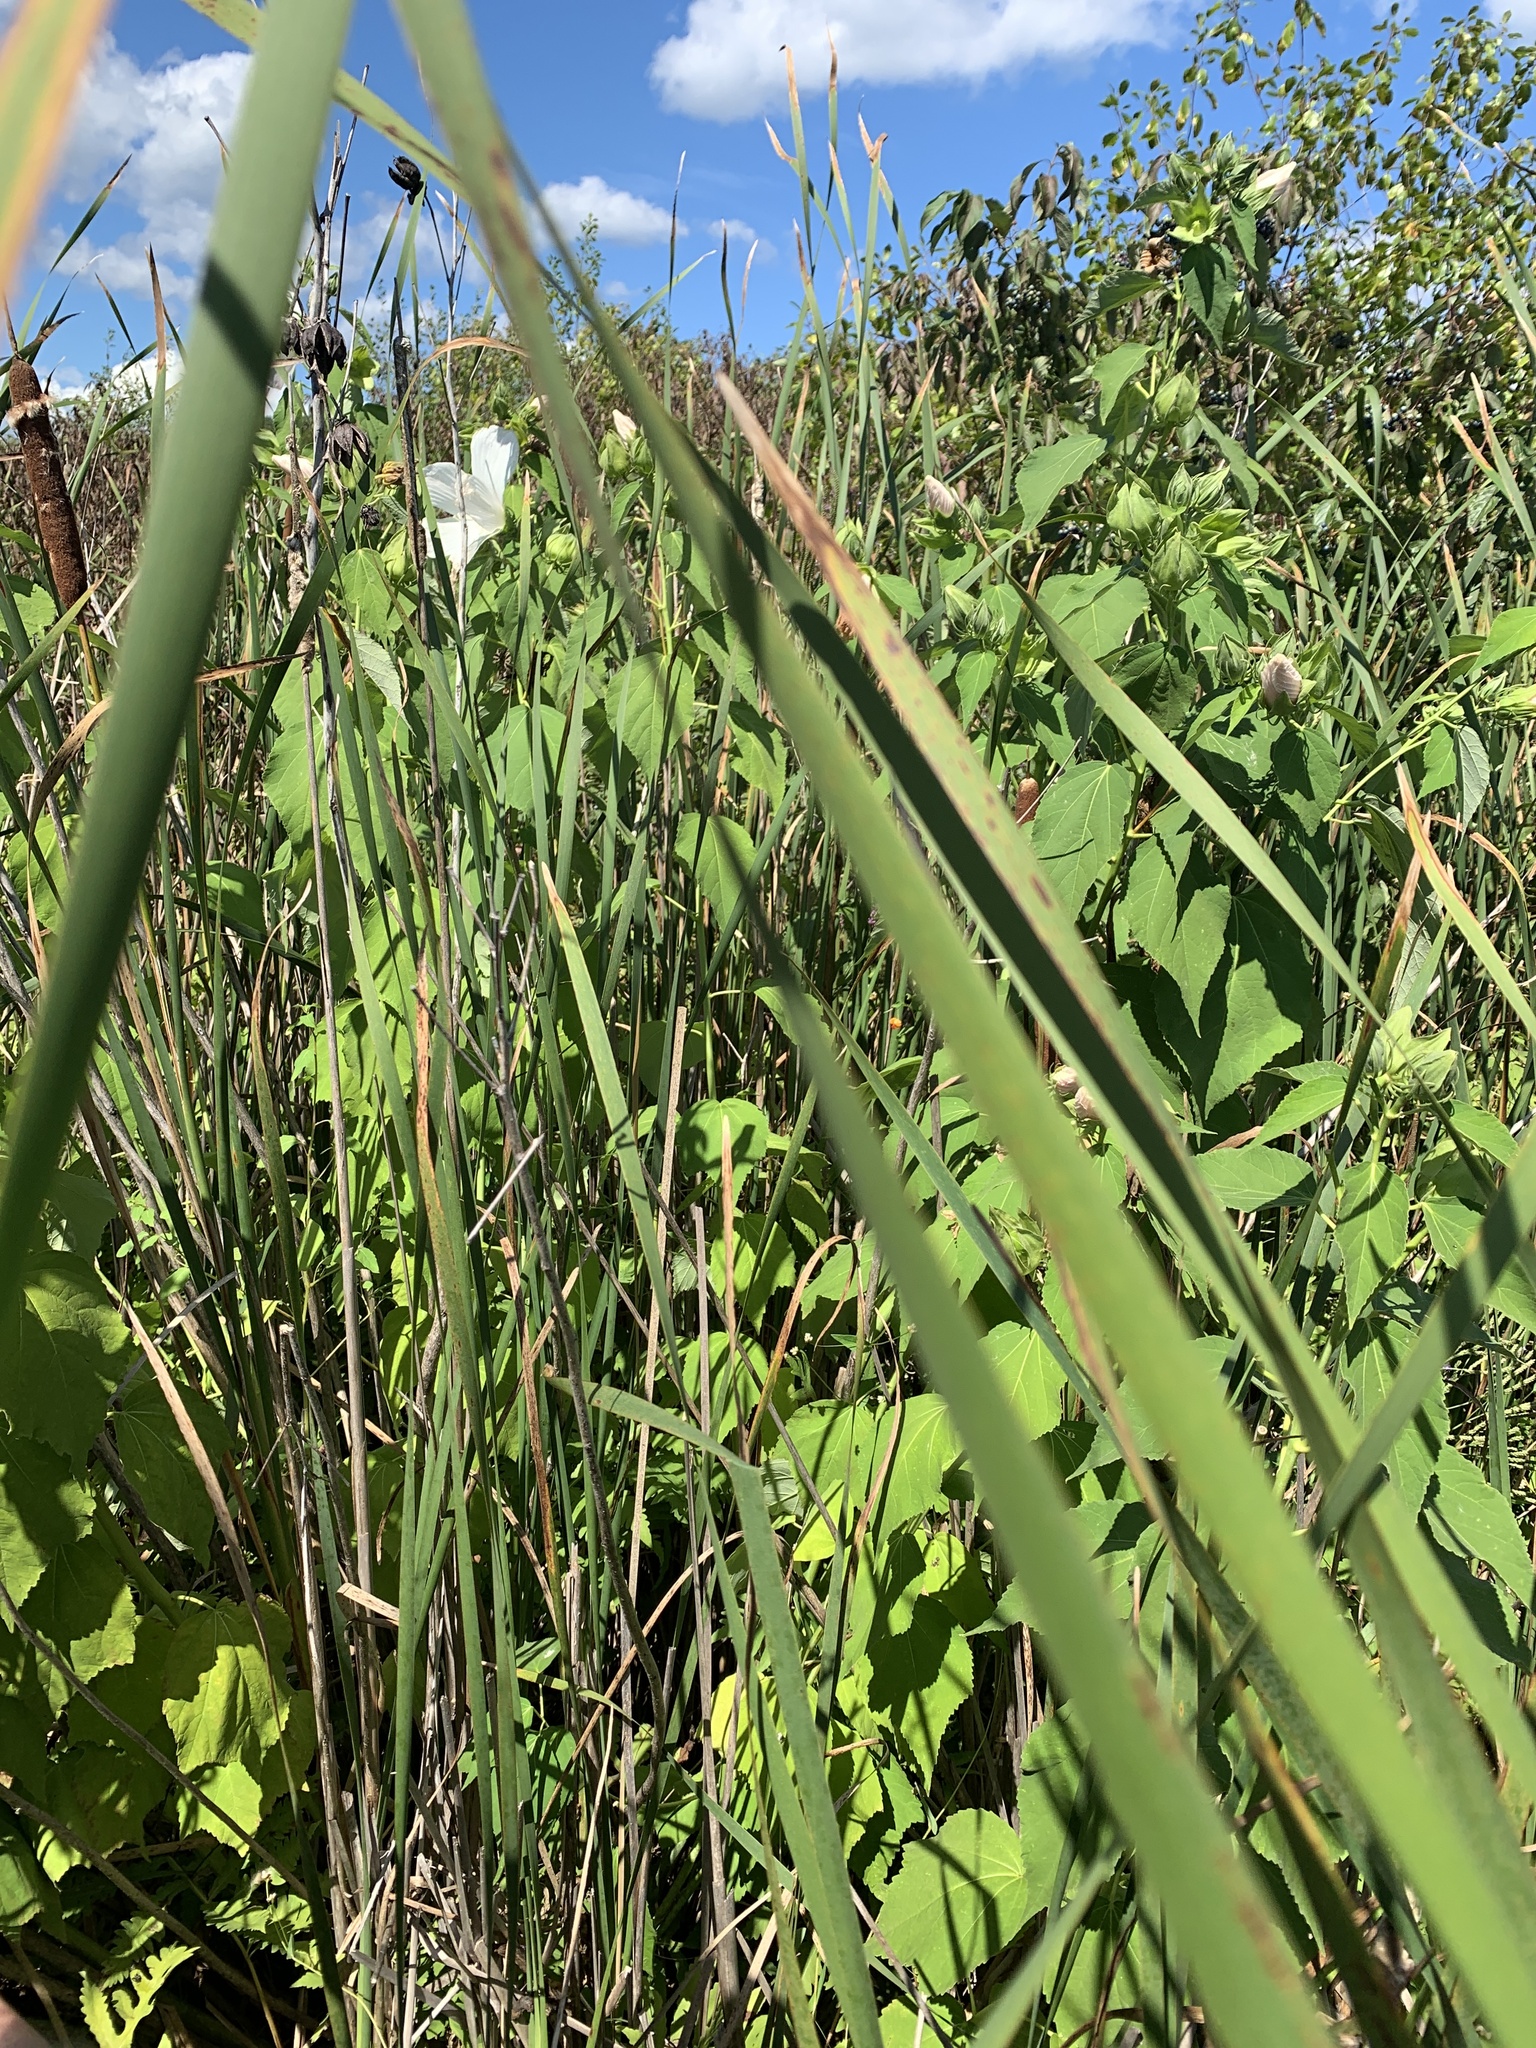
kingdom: Plantae
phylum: Tracheophyta
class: Magnoliopsida
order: Malvales
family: Malvaceae
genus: Hibiscus
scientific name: Hibiscus moscheutos
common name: Common rose-mallow
